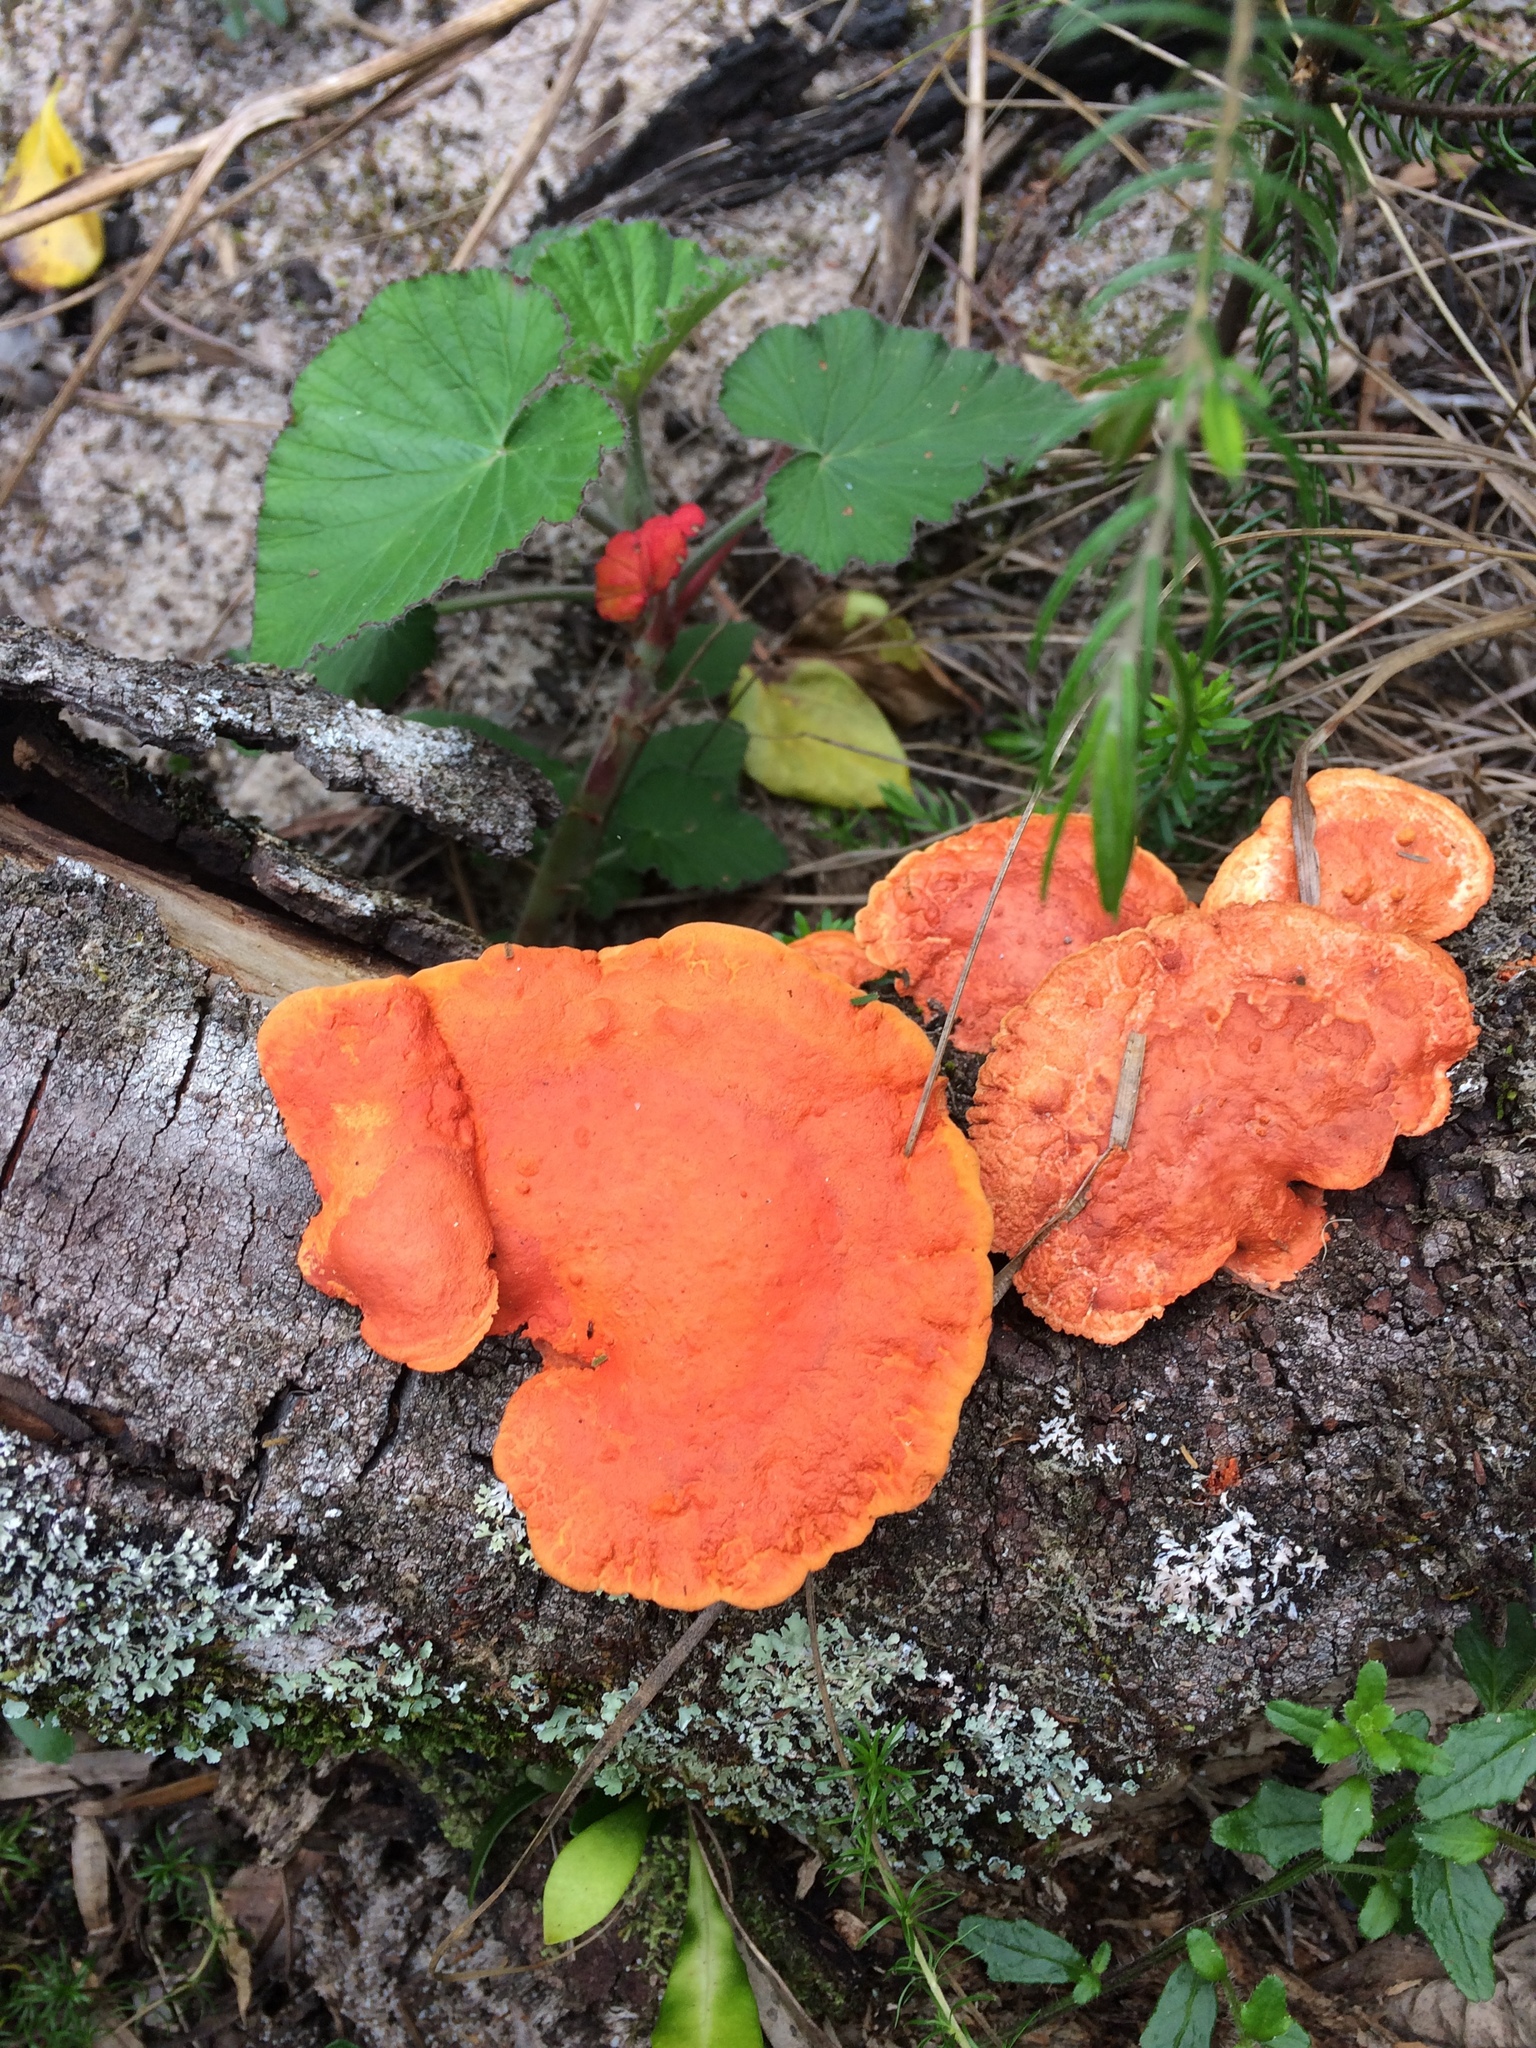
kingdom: Fungi
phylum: Basidiomycota
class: Agaricomycetes
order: Polyporales
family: Polyporaceae
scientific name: Polyporaceae
